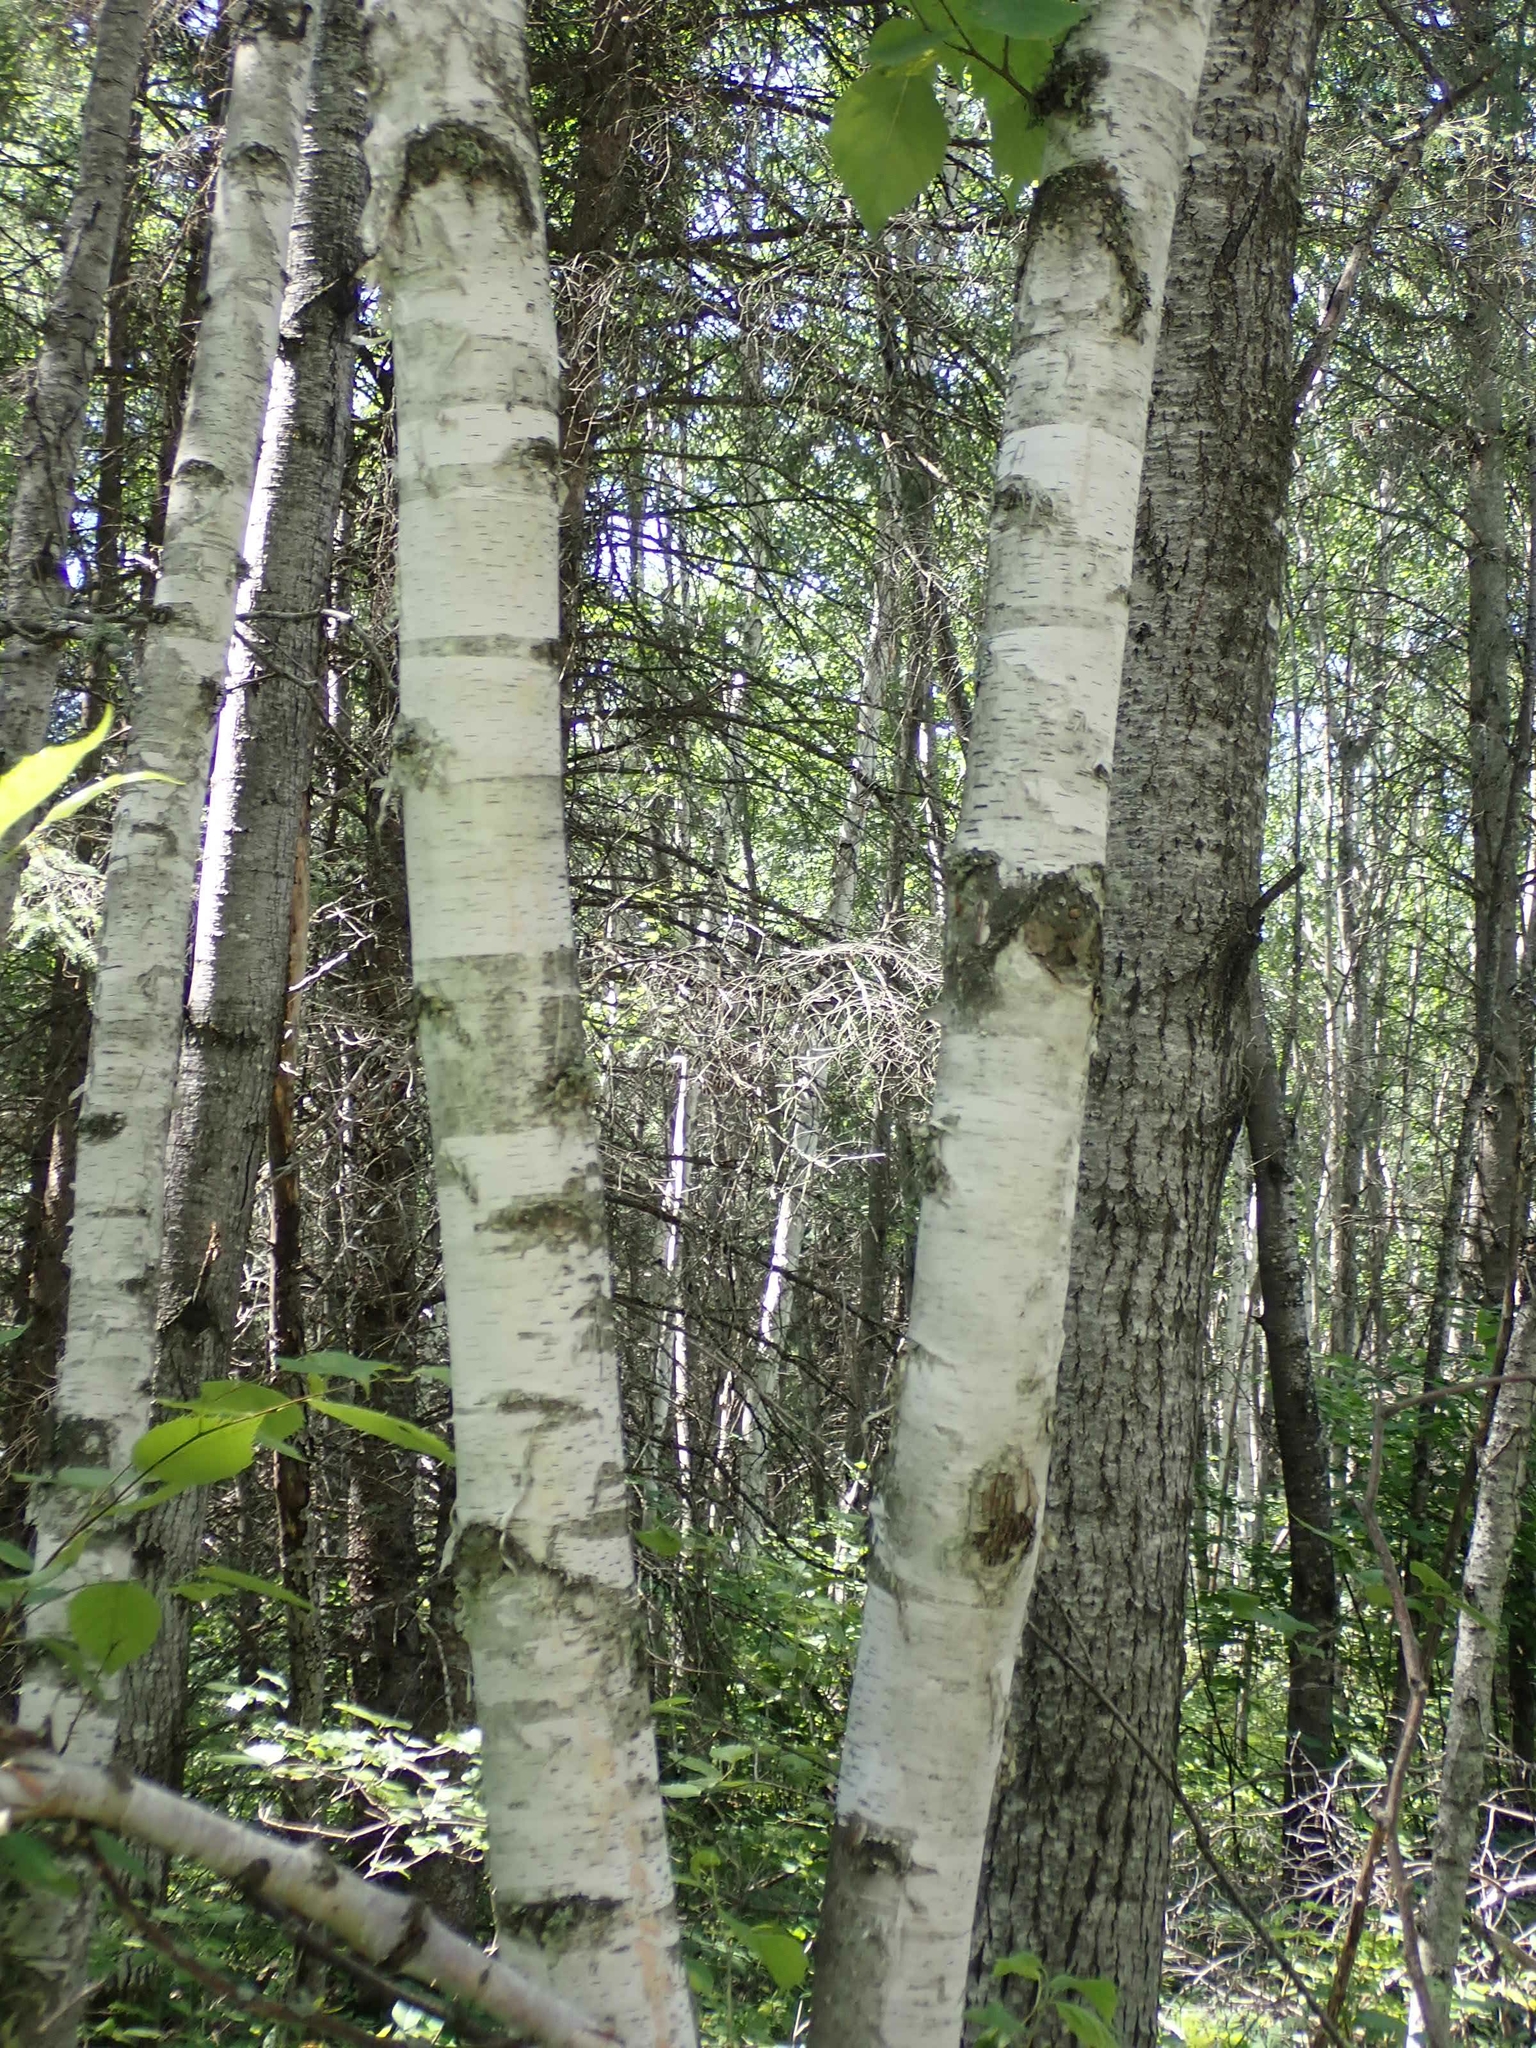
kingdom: Plantae
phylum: Tracheophyta
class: Magnoliopsida
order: Fagales
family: Betulaceae
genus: Betula
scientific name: Betula papyrifera
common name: Paper birch
